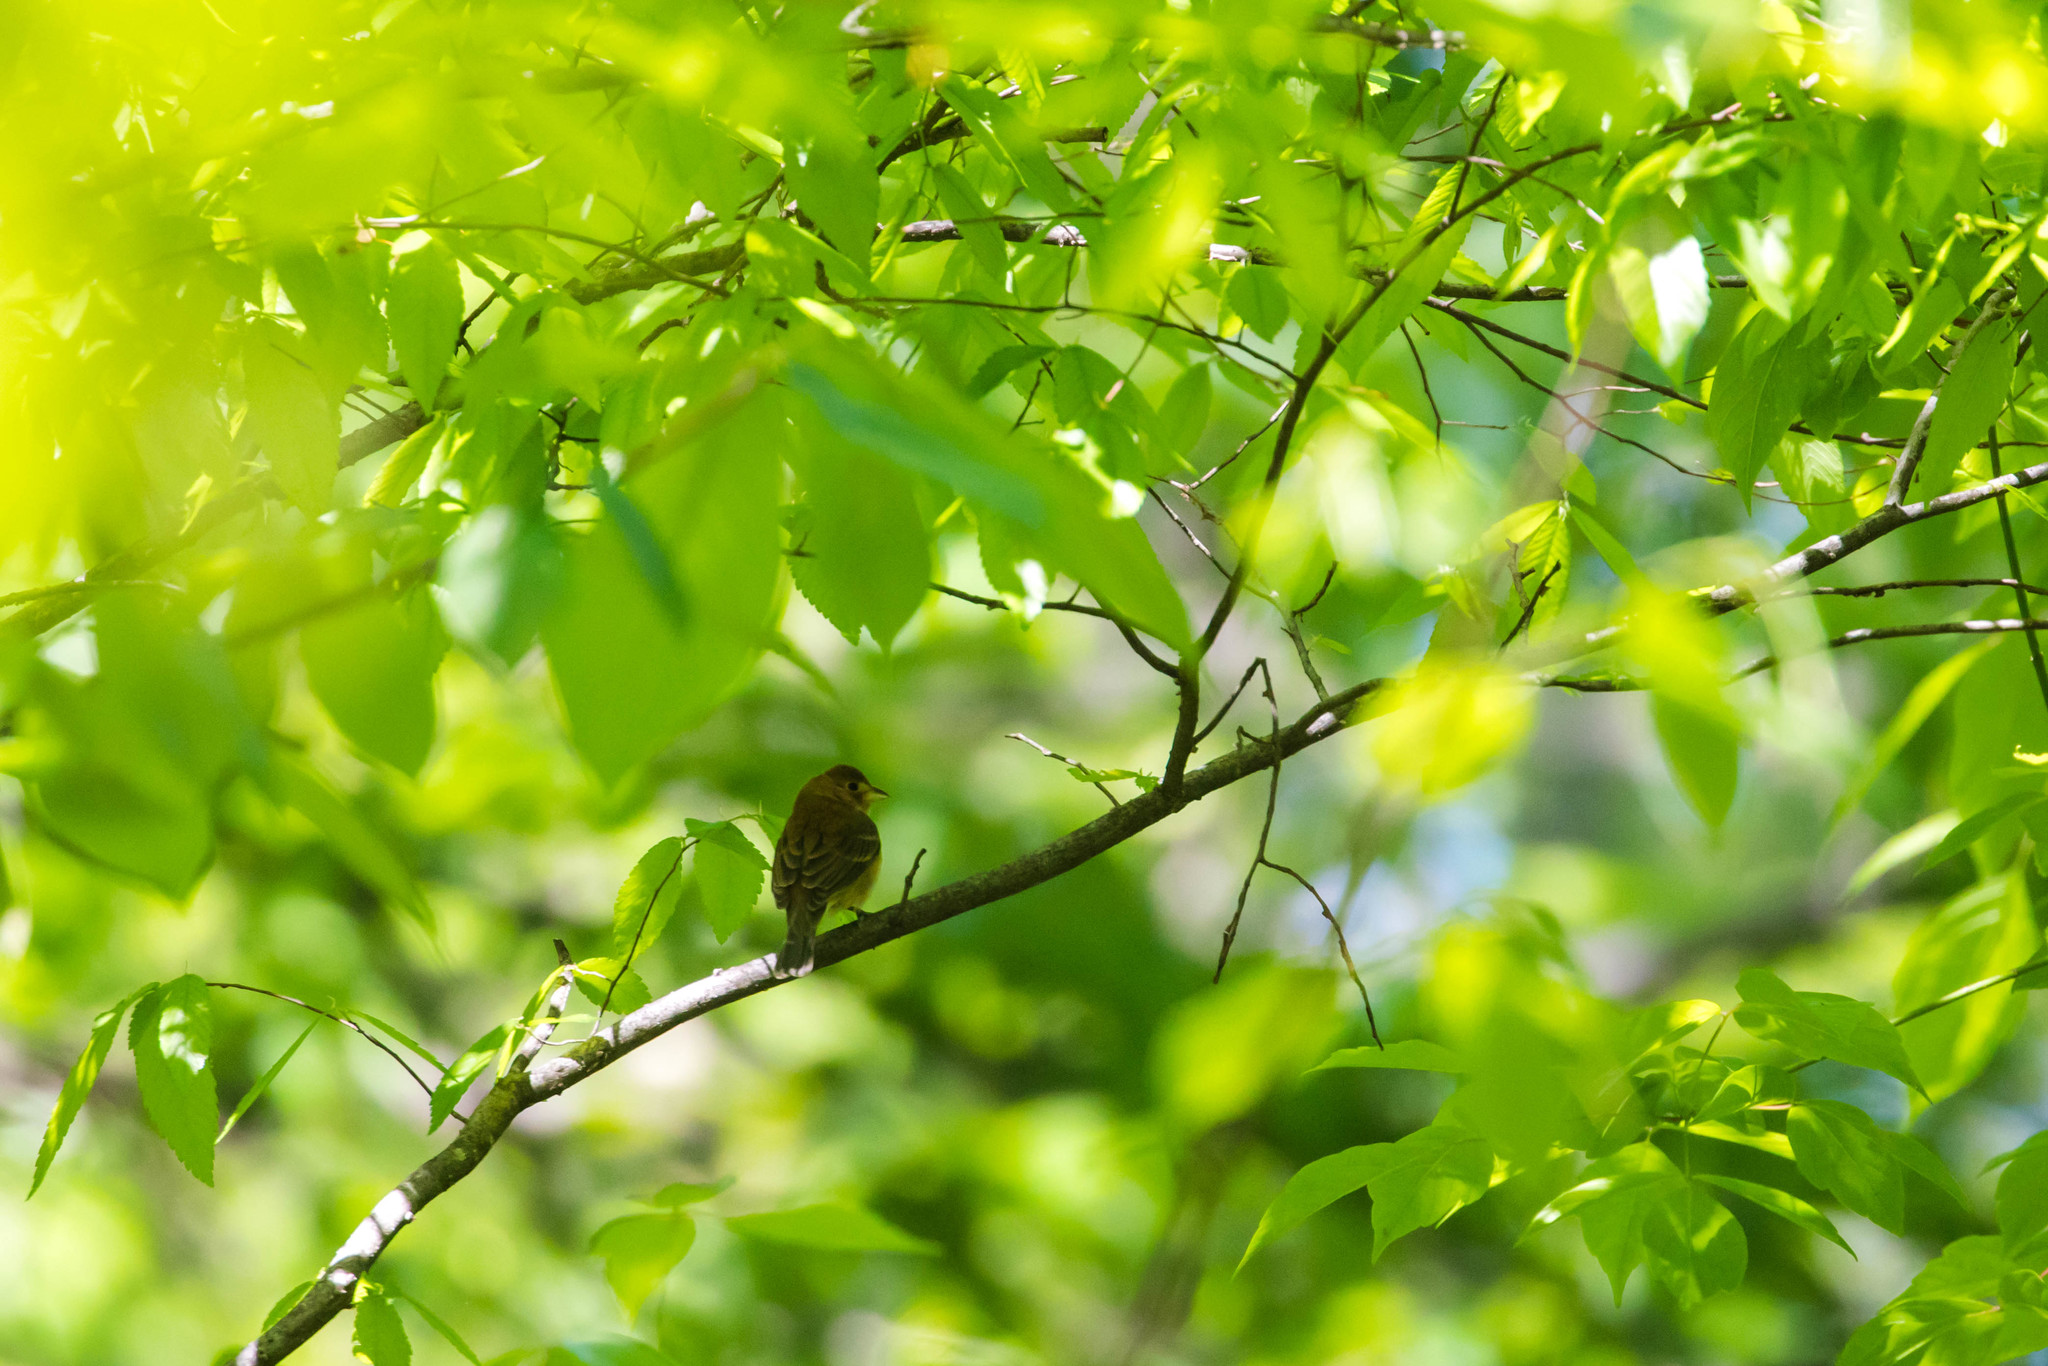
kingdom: Animalia
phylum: Chordata
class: Aves
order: Passeriformes
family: Cardinalidae
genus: Passerina
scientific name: Passerina cyanea
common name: Indigo bunting
